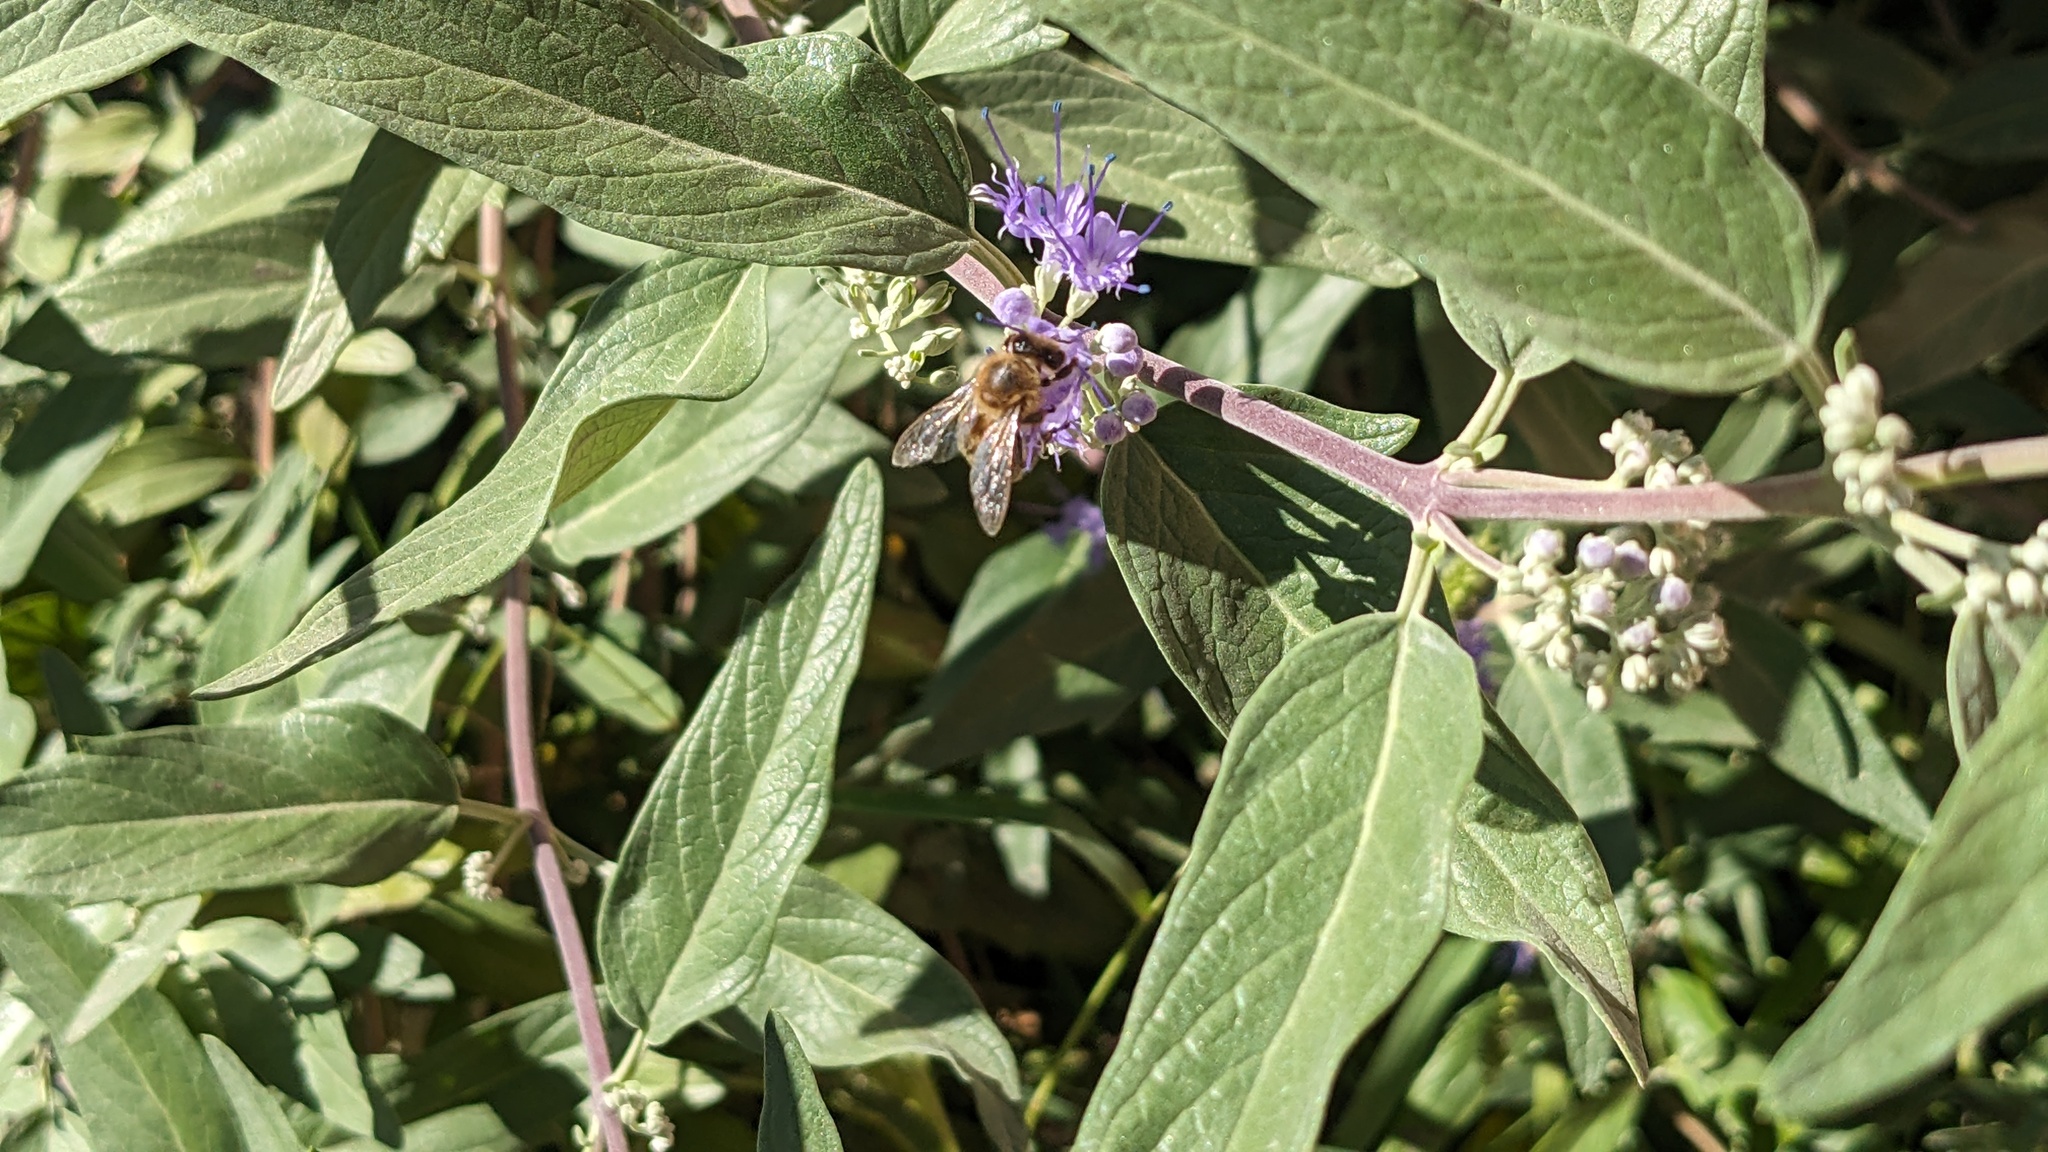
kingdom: Animalia
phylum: Arthropoda
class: Insecta
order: Hymenoptera
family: Apidae
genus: Apis
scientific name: Apis mellifera
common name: Honey bee
